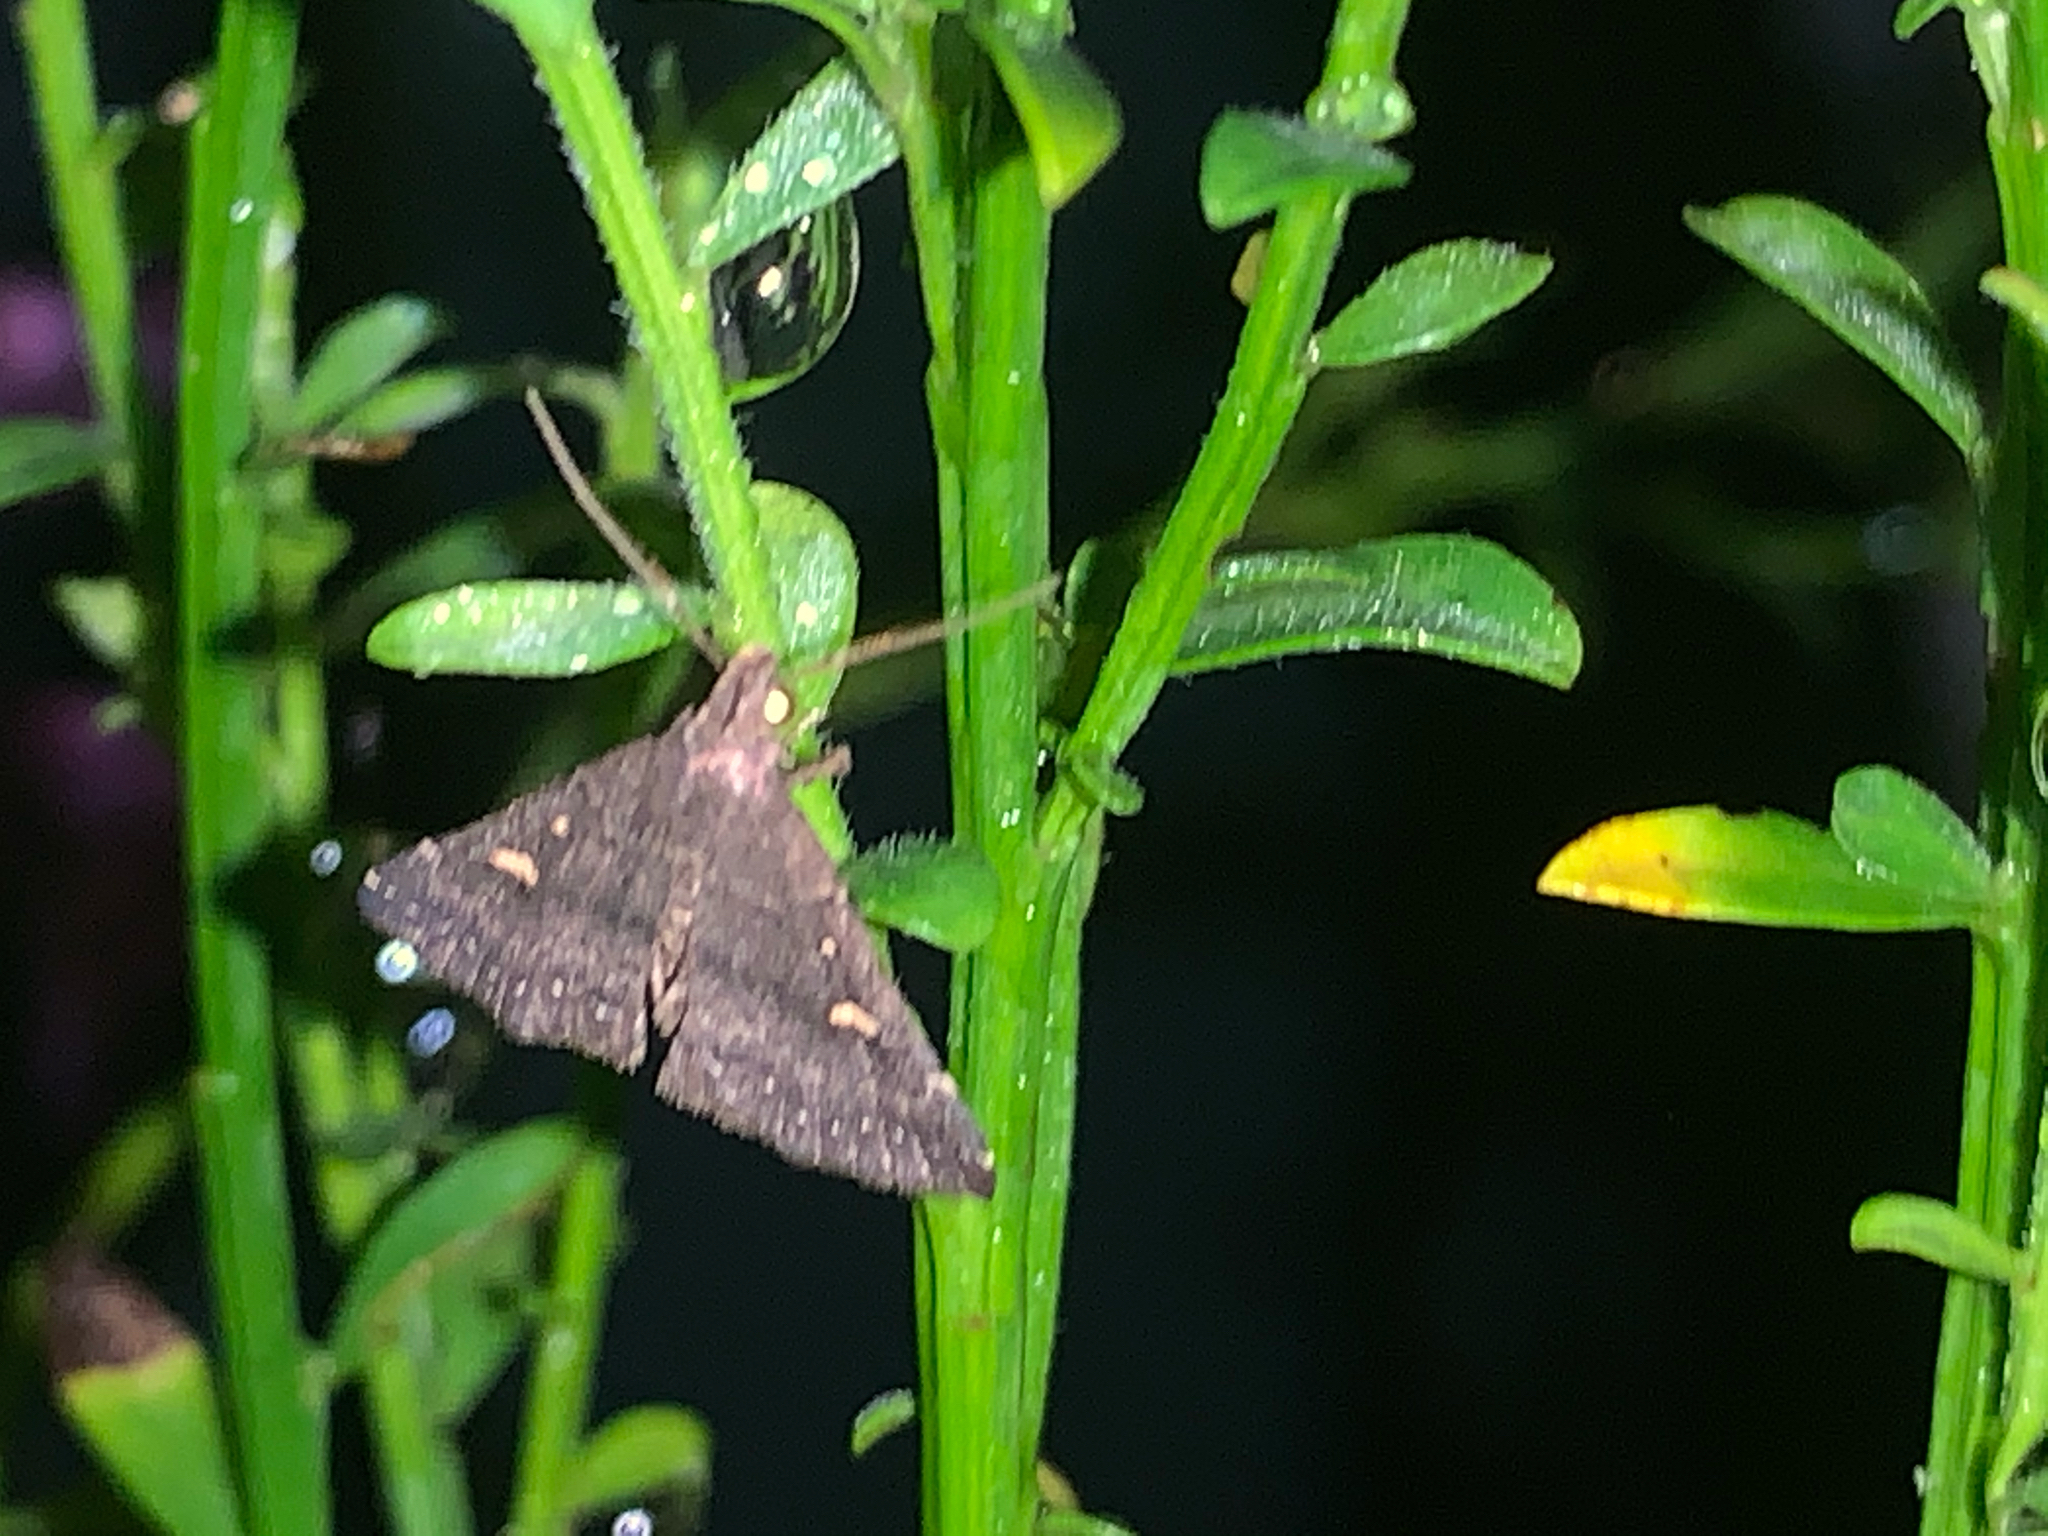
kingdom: Animalia
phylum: Arthropoda
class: Insecta
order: Lepidoptera
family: Erebidae
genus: Tetanolita
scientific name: Tetanolita mynesalis
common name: Smoky tetanolita moth
